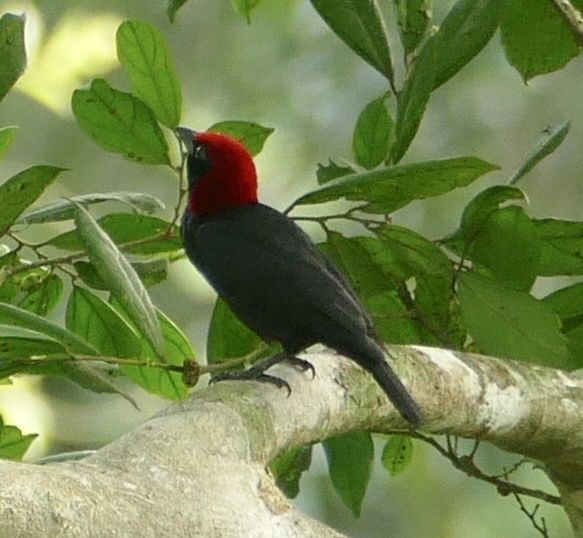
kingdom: Animalia
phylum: Chordata
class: Aves
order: Passeriformes
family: Ploceidae
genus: Malimbus
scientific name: Malimbus rubricollis
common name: Red-headed malimbe
